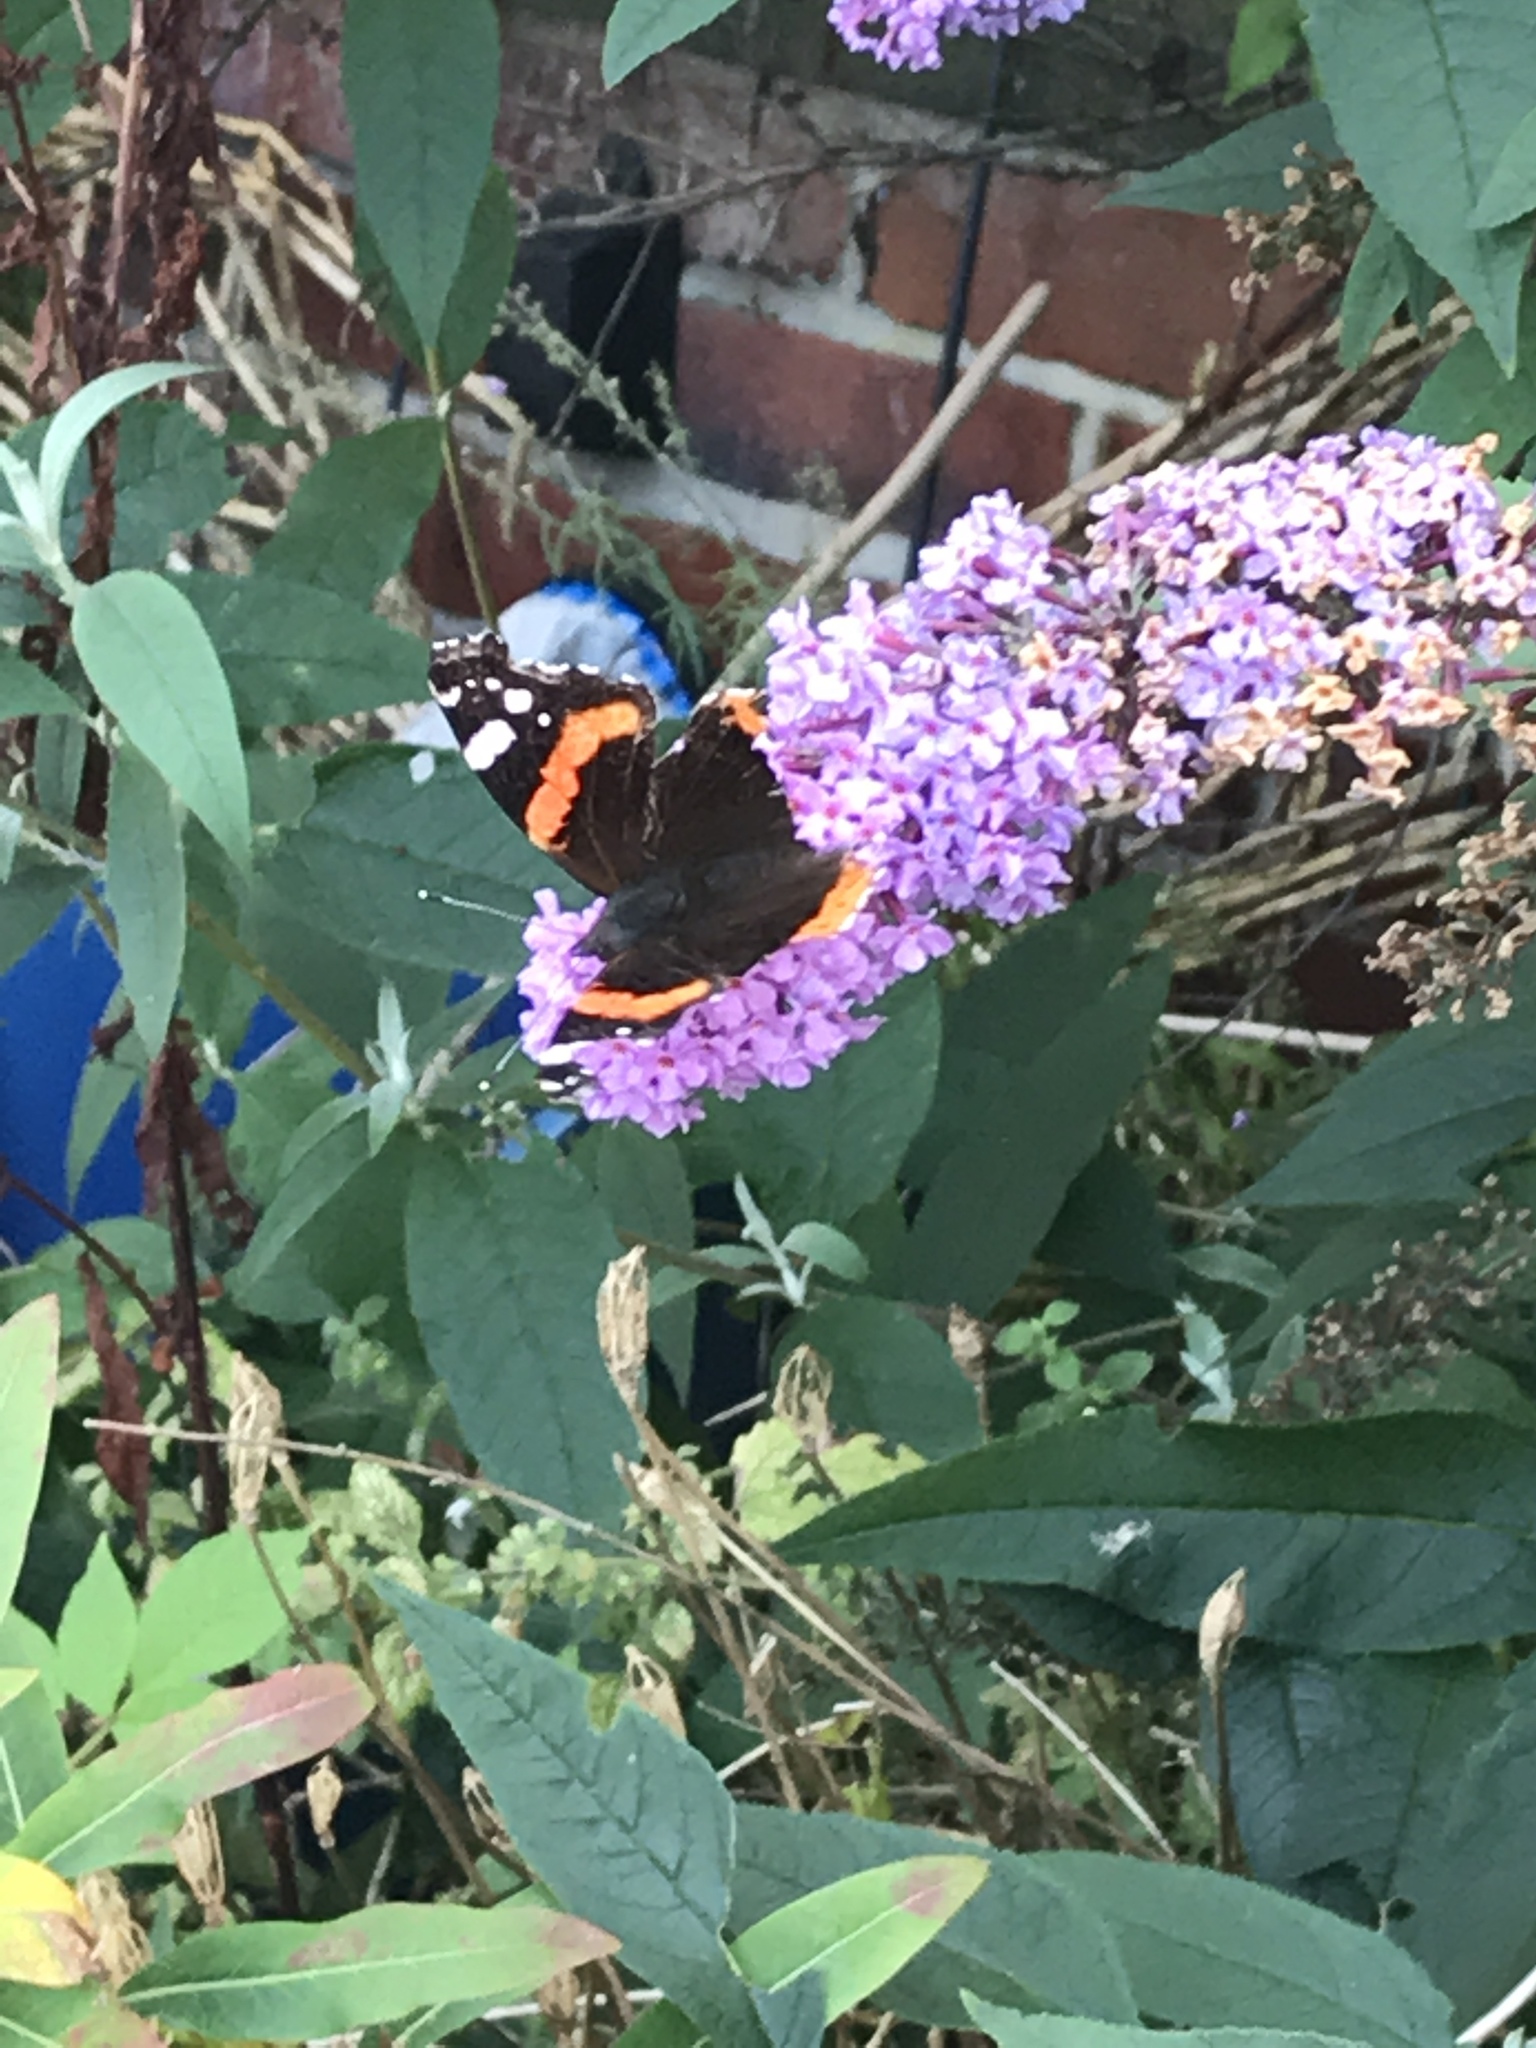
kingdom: Animalia
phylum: Arthropoda
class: Insecta
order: Lepidoptera
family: Nymphalidae
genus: Vanessa
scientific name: Vanessa atalanta
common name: Red admiral
